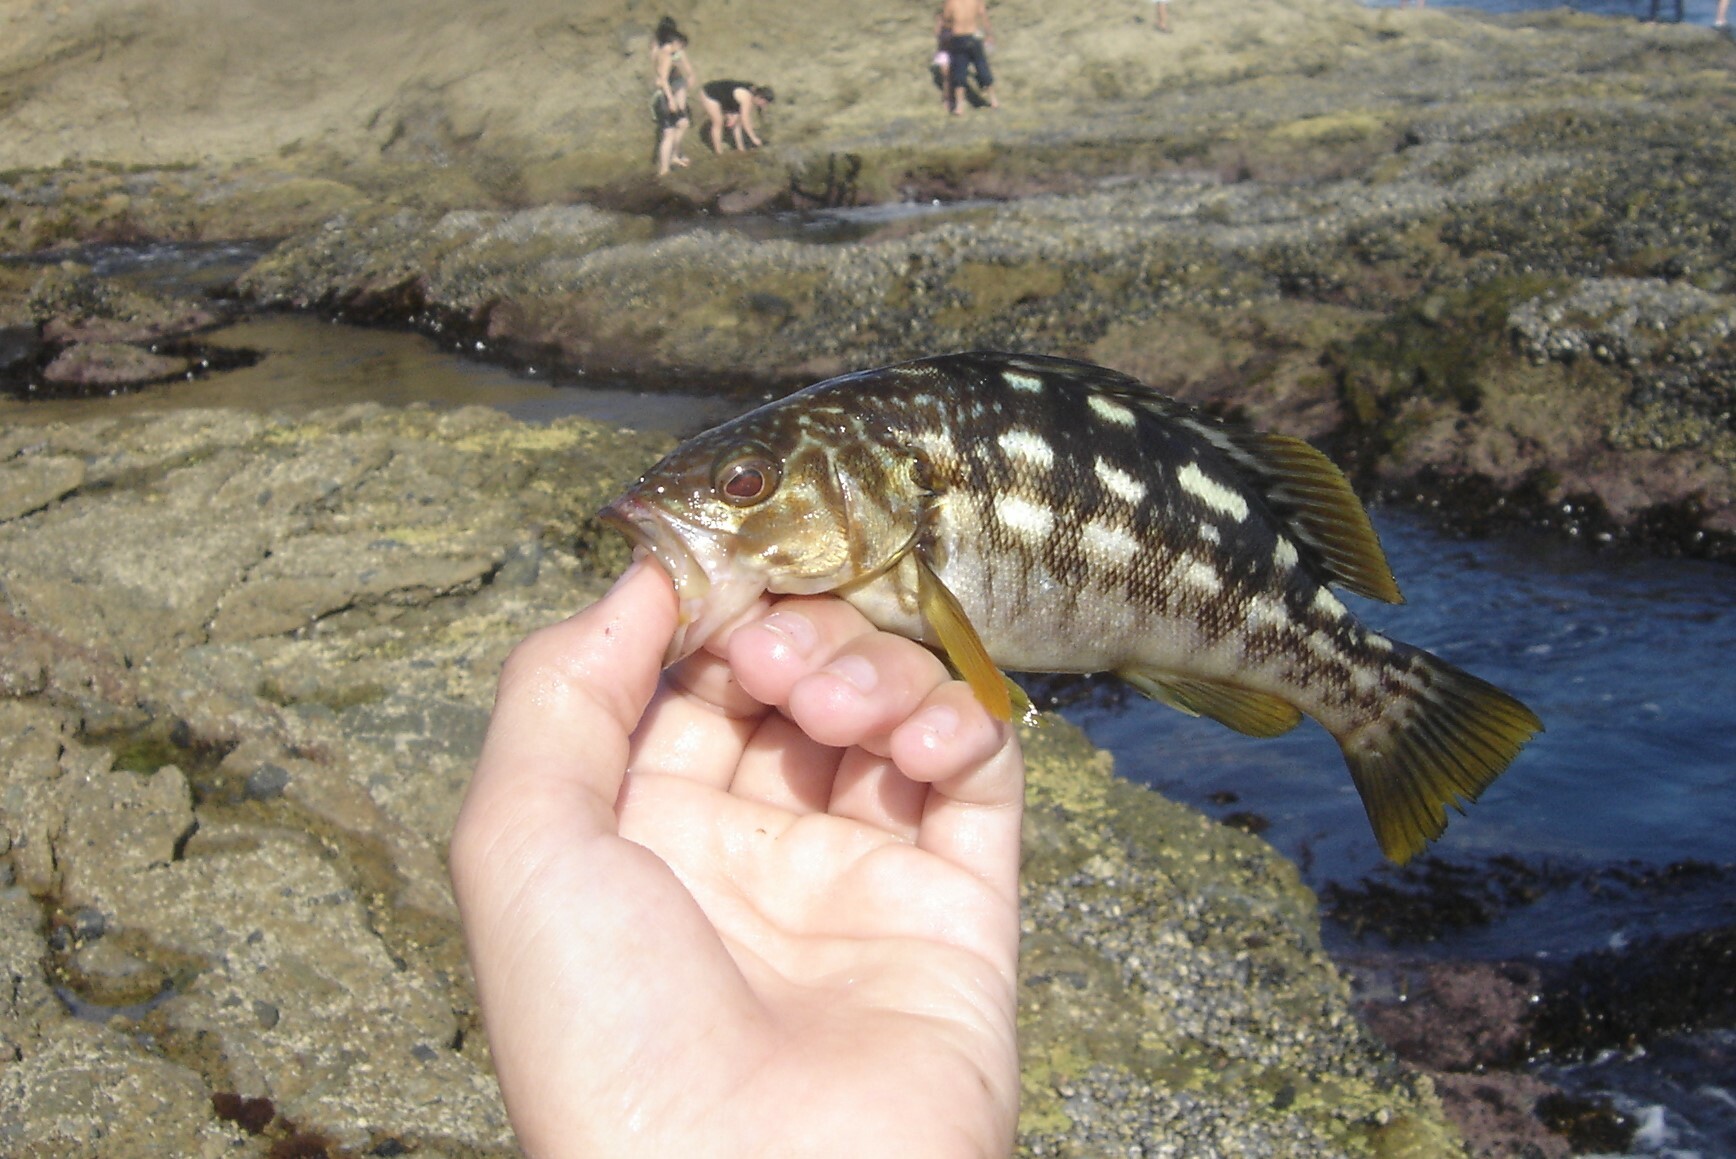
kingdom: Animalia
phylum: Chordata
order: Perciformes
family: Serranidae
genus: Paralabrax
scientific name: Paralabrax clathratus
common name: Kelp bass
